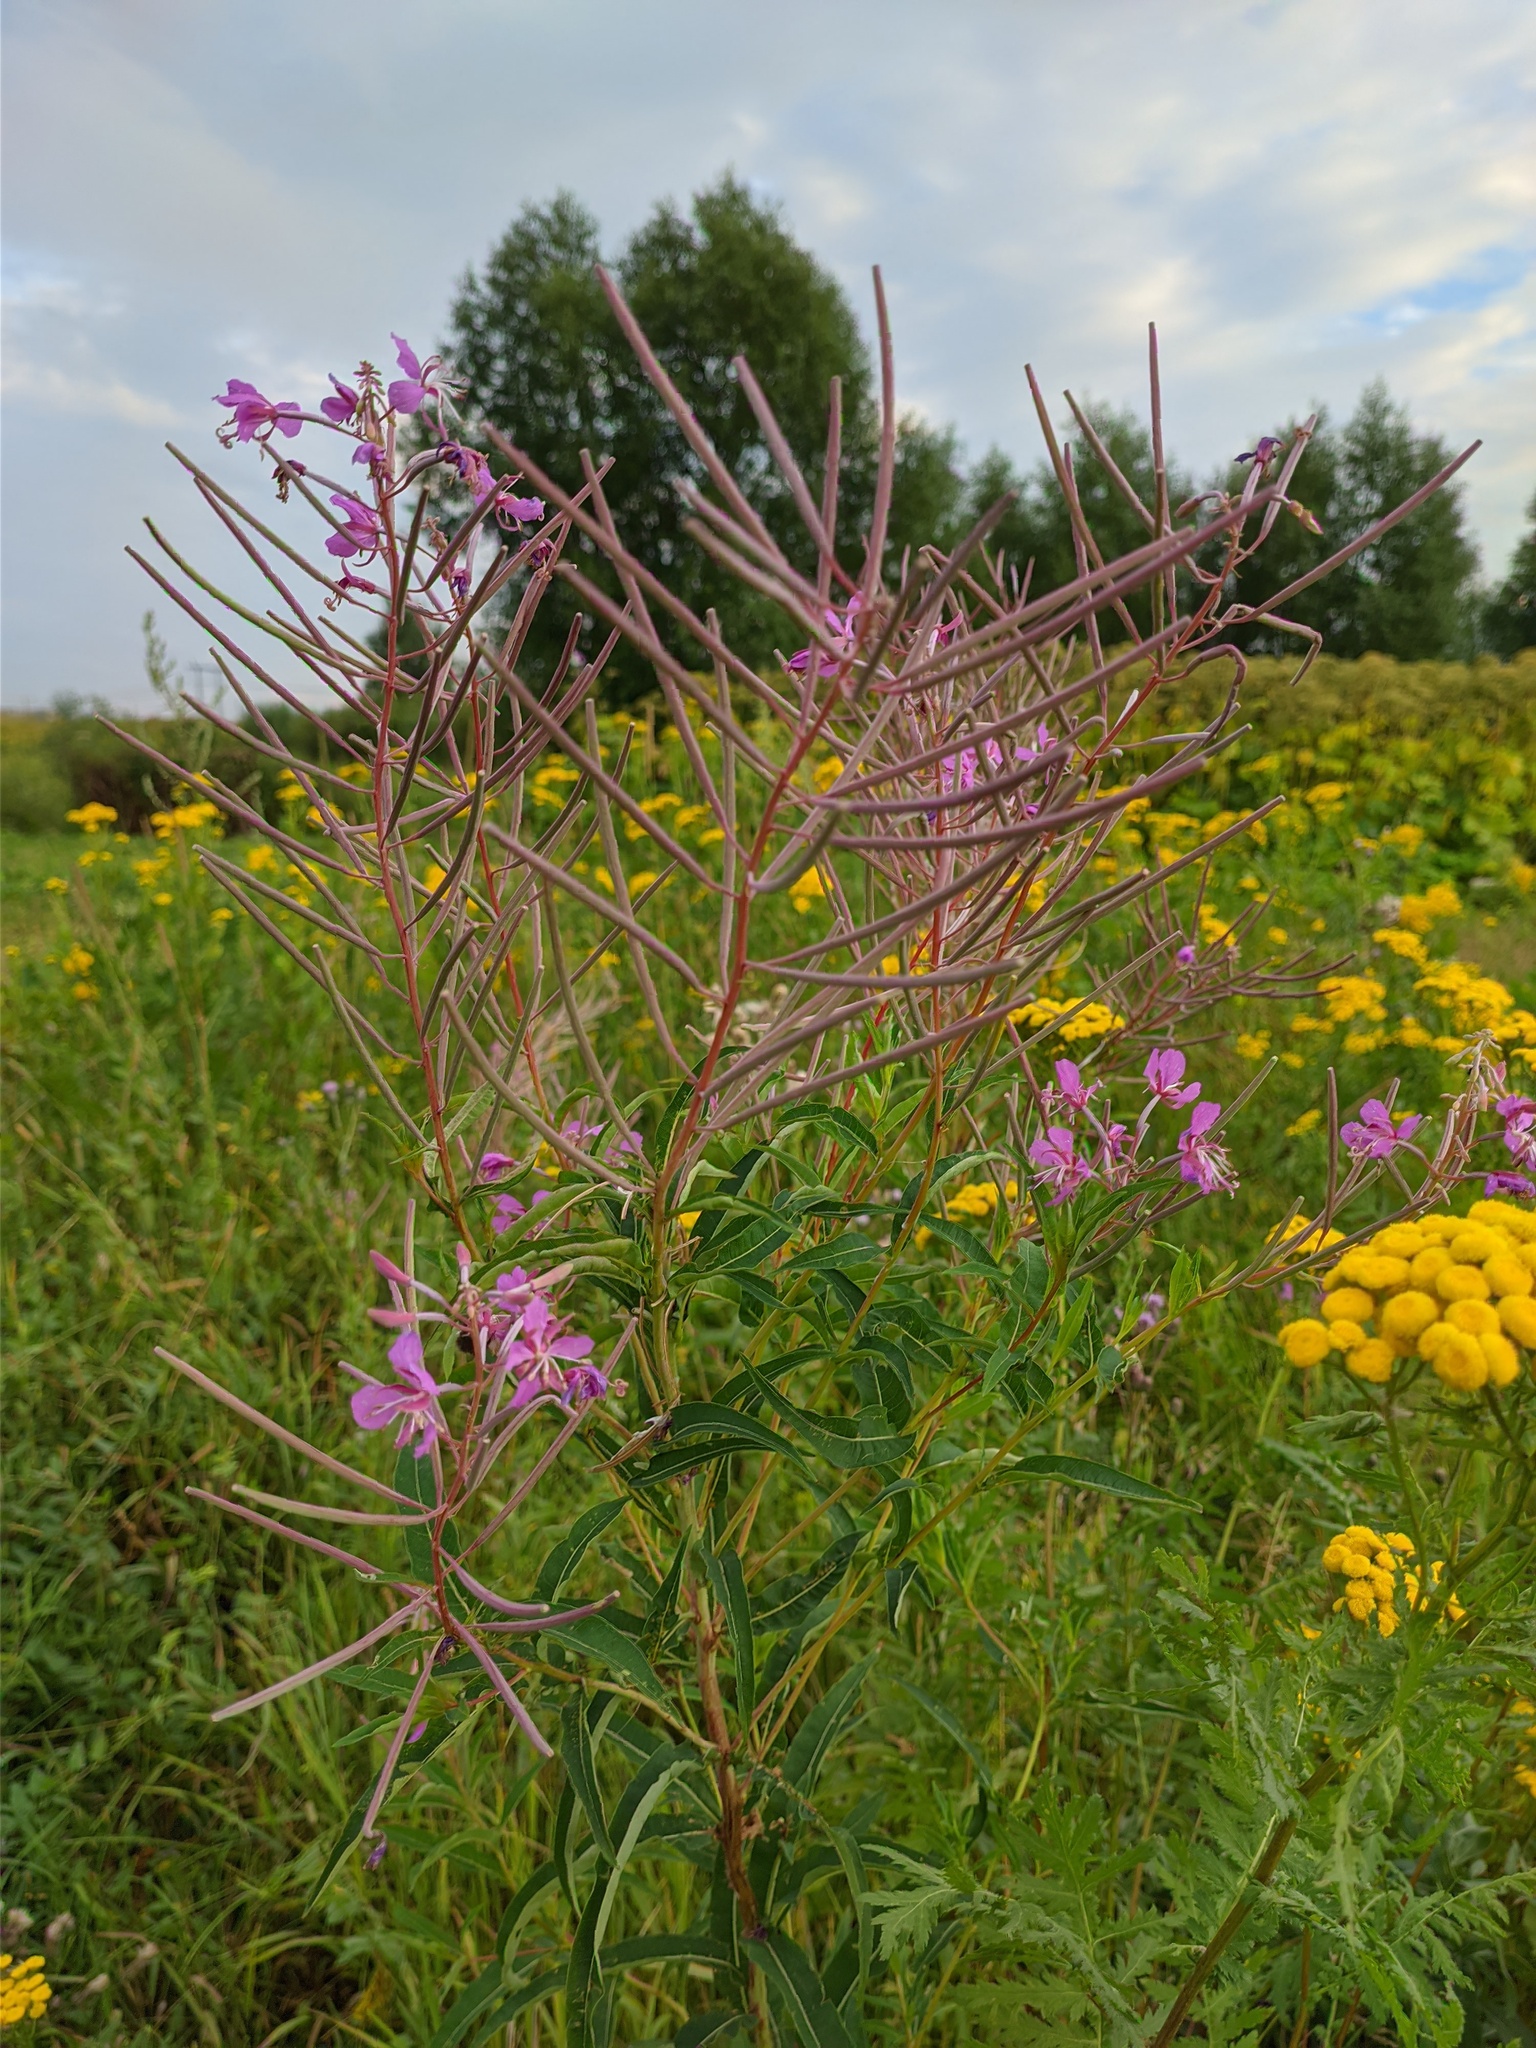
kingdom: Plantae
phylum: Tracheophyta
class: Magnoliopsida
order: Myrtales
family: Onagraceae
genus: Chamaenerion
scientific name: Chamaenerion angustifolium
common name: Fireweed
